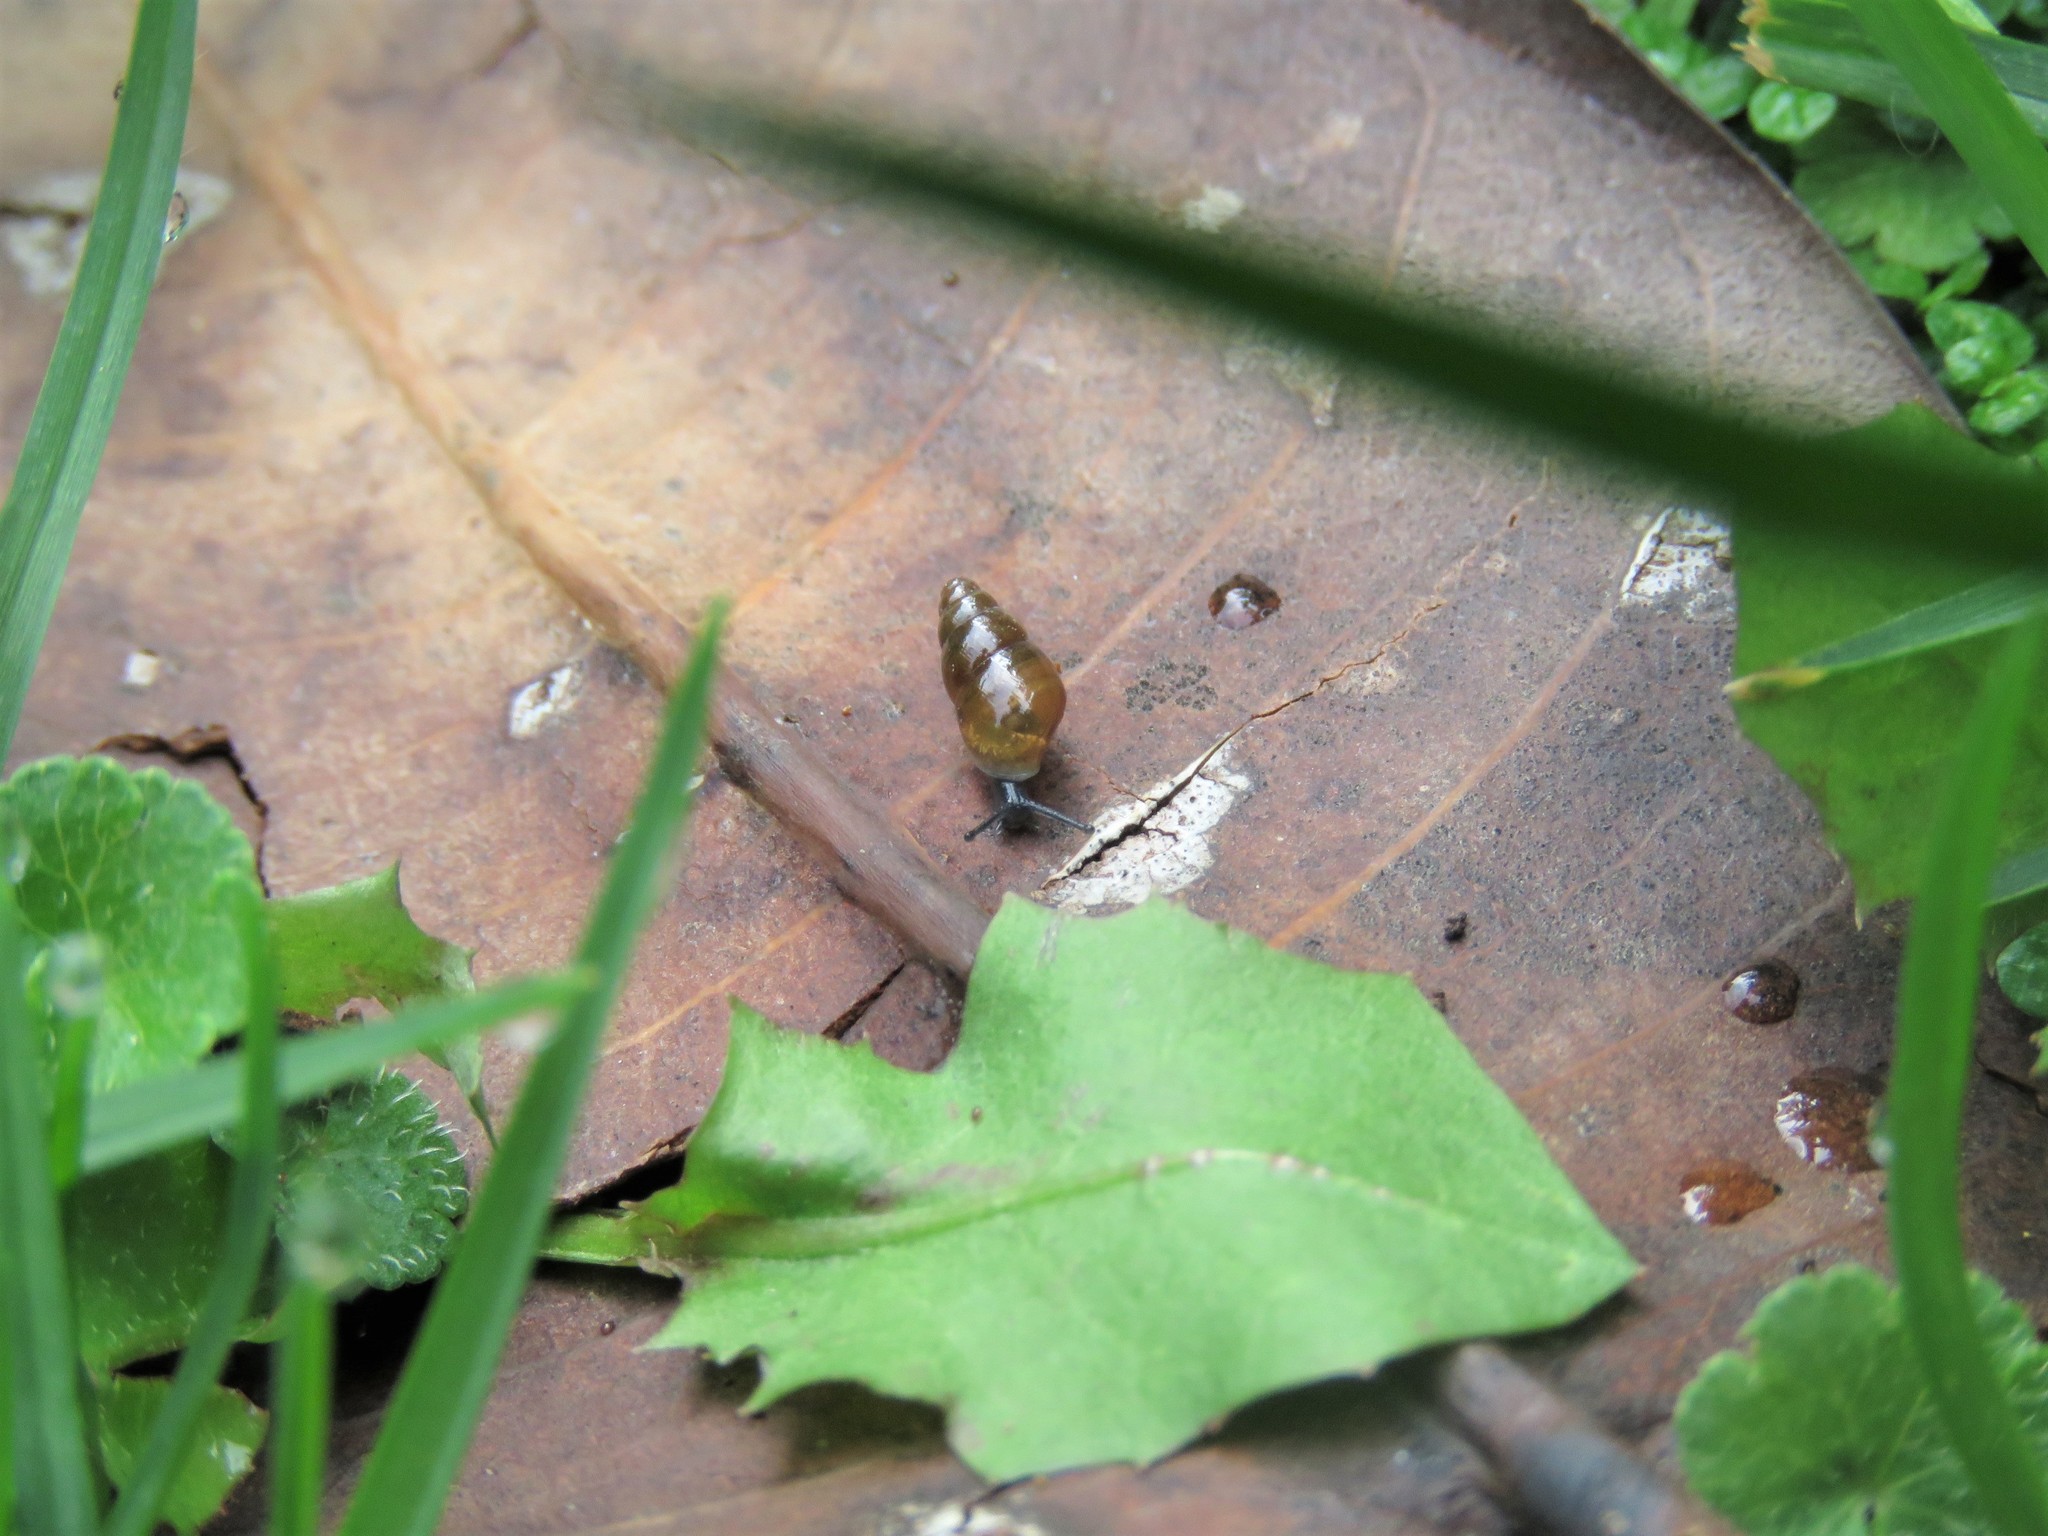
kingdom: Animalia
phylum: Mollusca
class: Gastropoda
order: Stylommatophora
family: Cochlicopidae
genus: Cochlicopa
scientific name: Cochlicopa lubrica
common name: Glossy pillar snail
